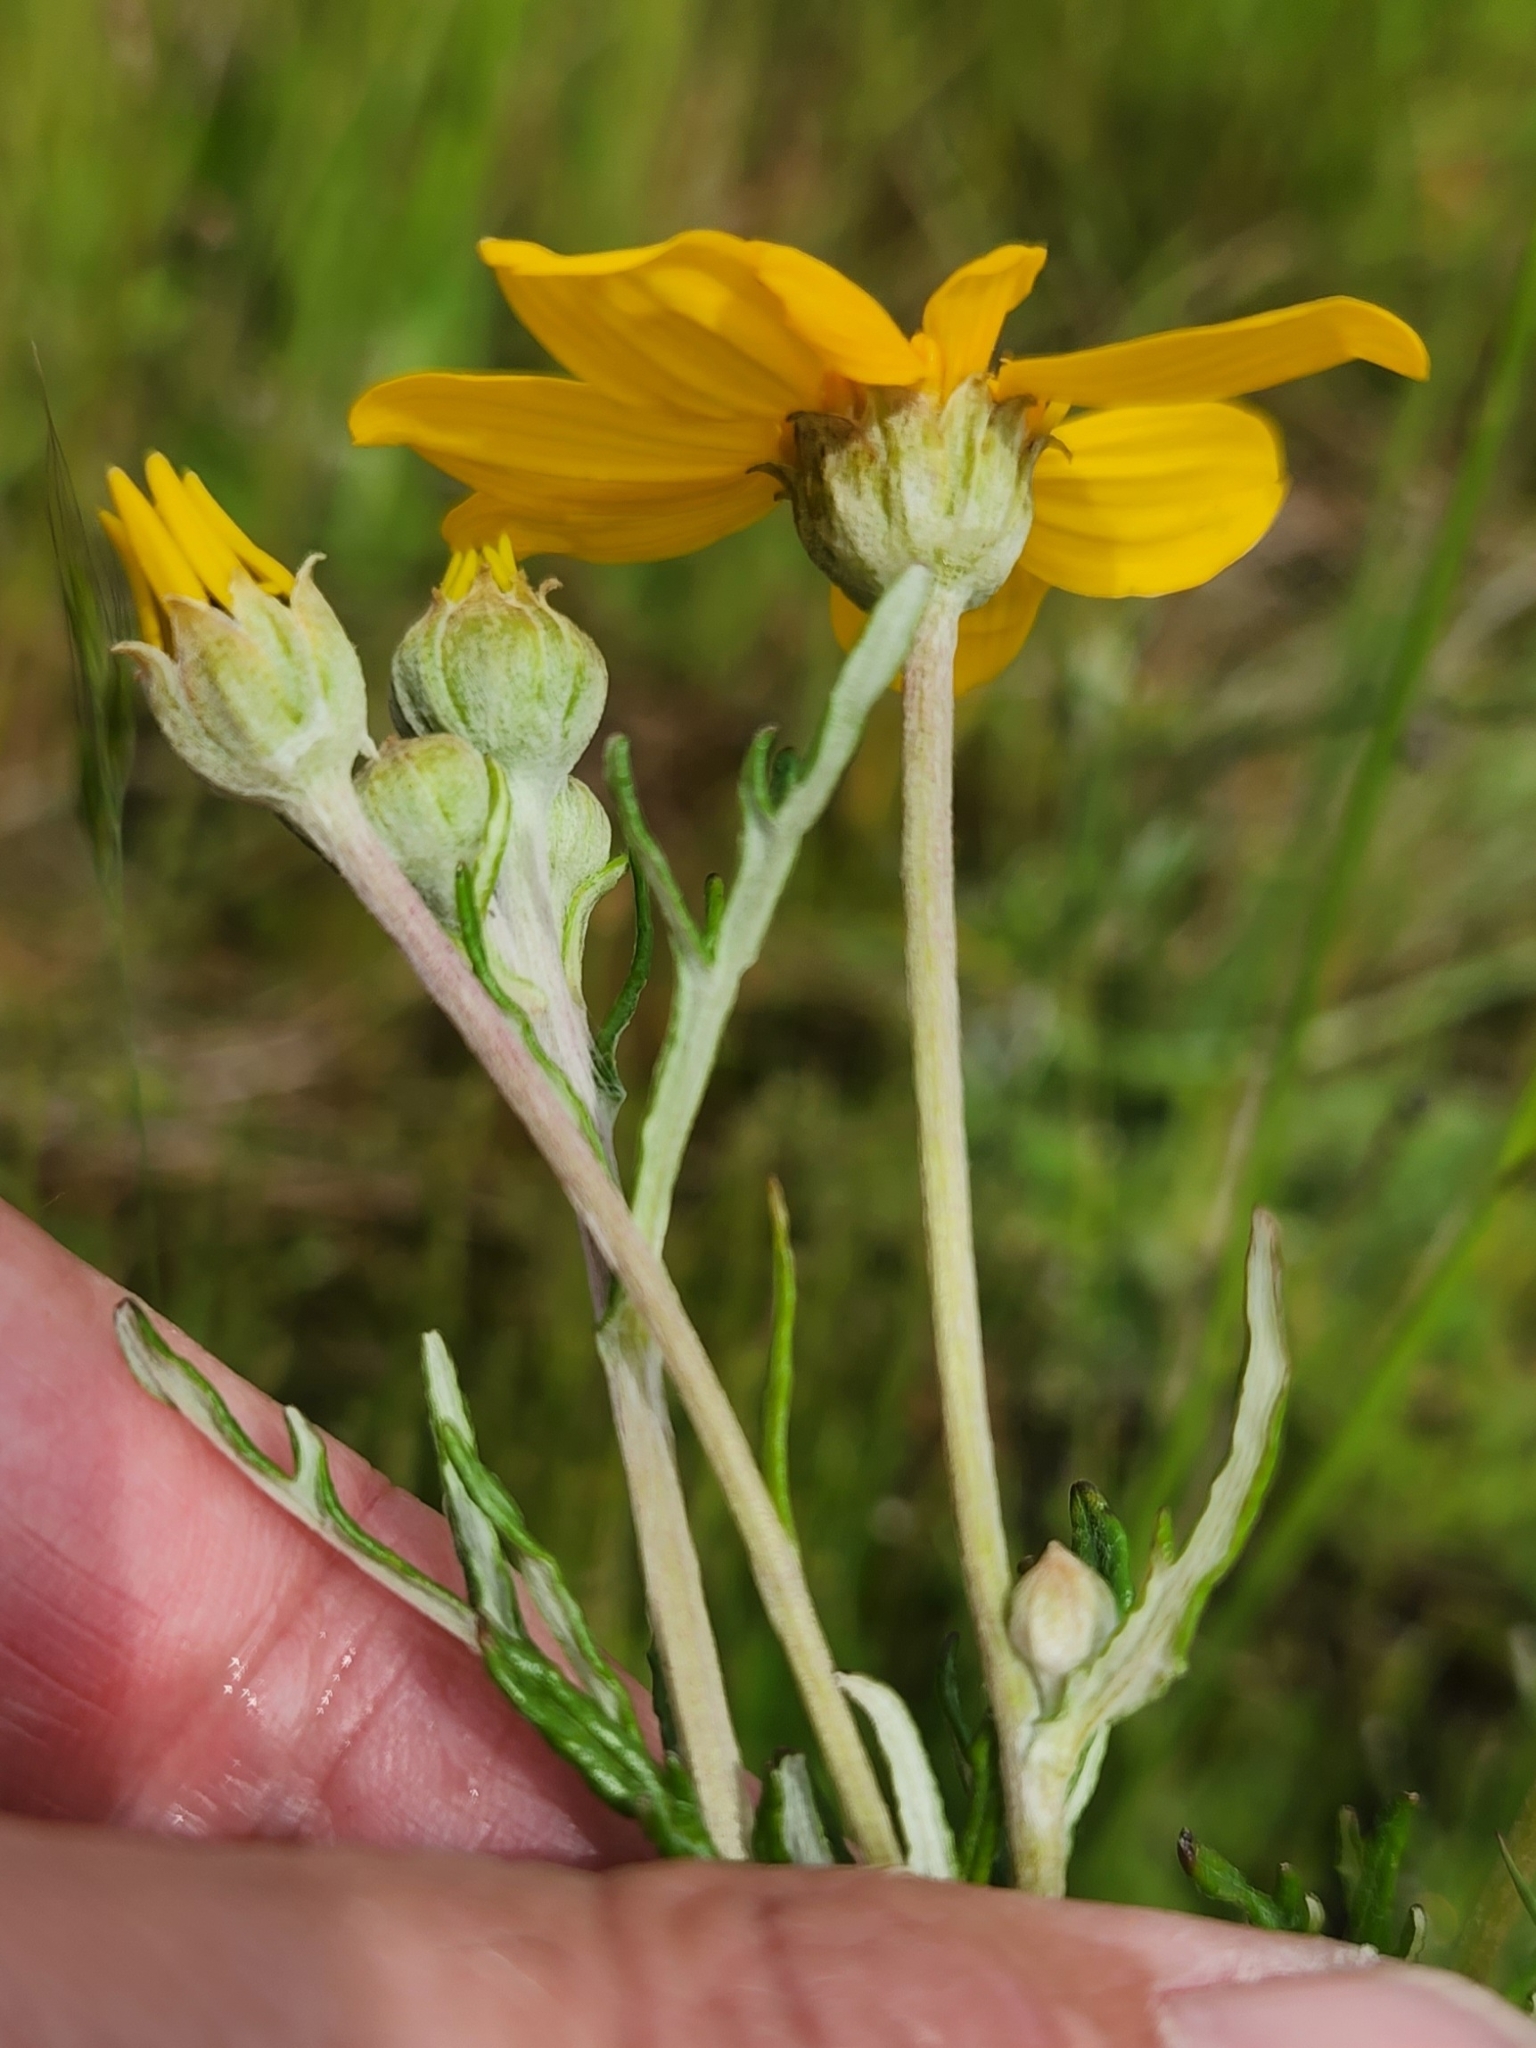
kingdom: Plantae
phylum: Tracheophyta
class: Magnoliopsida
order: Asterales
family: Asteraceae
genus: Eriophyllum
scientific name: Eriophyllum lanatum
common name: Common woolly-sunflower
